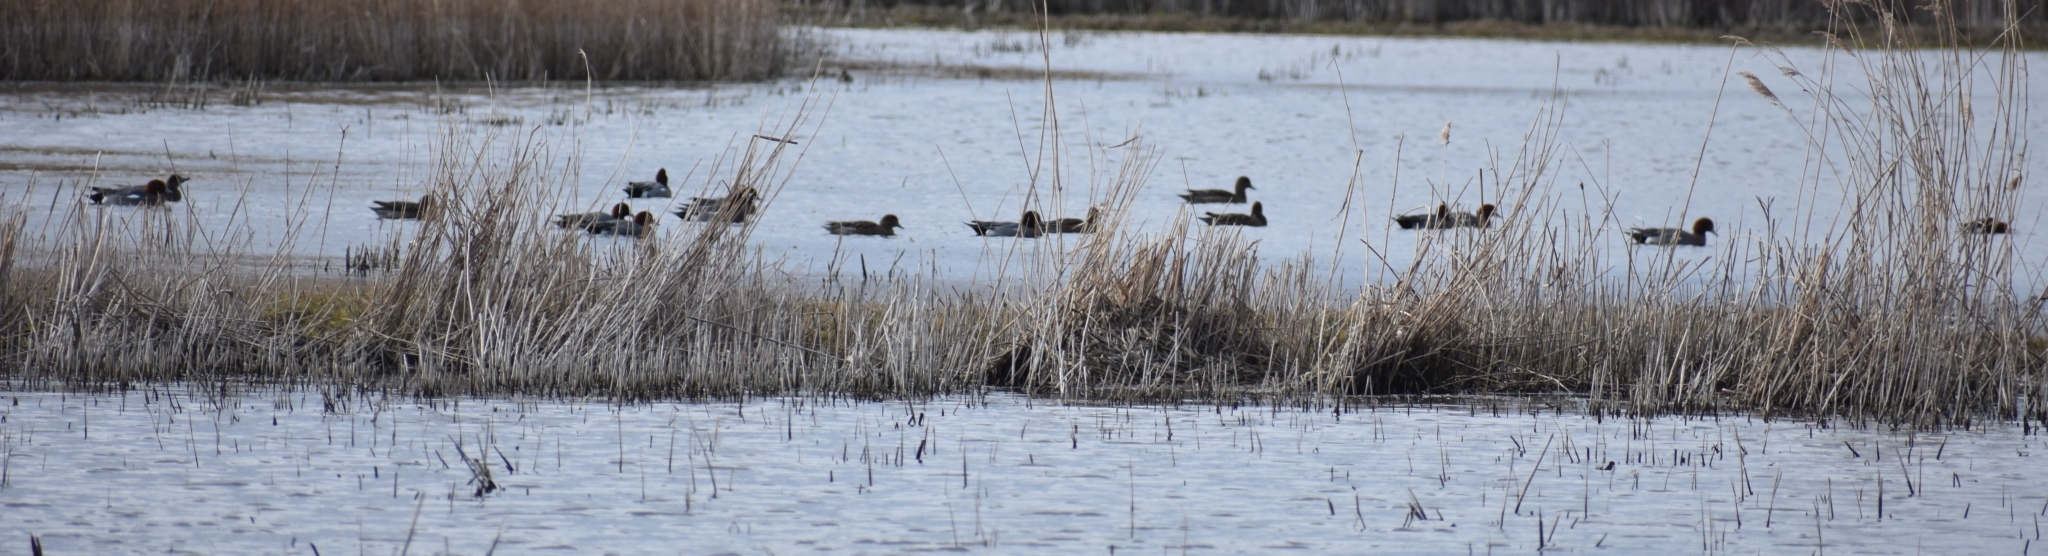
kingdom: Animalia
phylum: Chordata
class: Aves
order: Anseriformes
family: Anatidae
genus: Mareca
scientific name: Mareca penelope
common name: Eurasian wigeon
